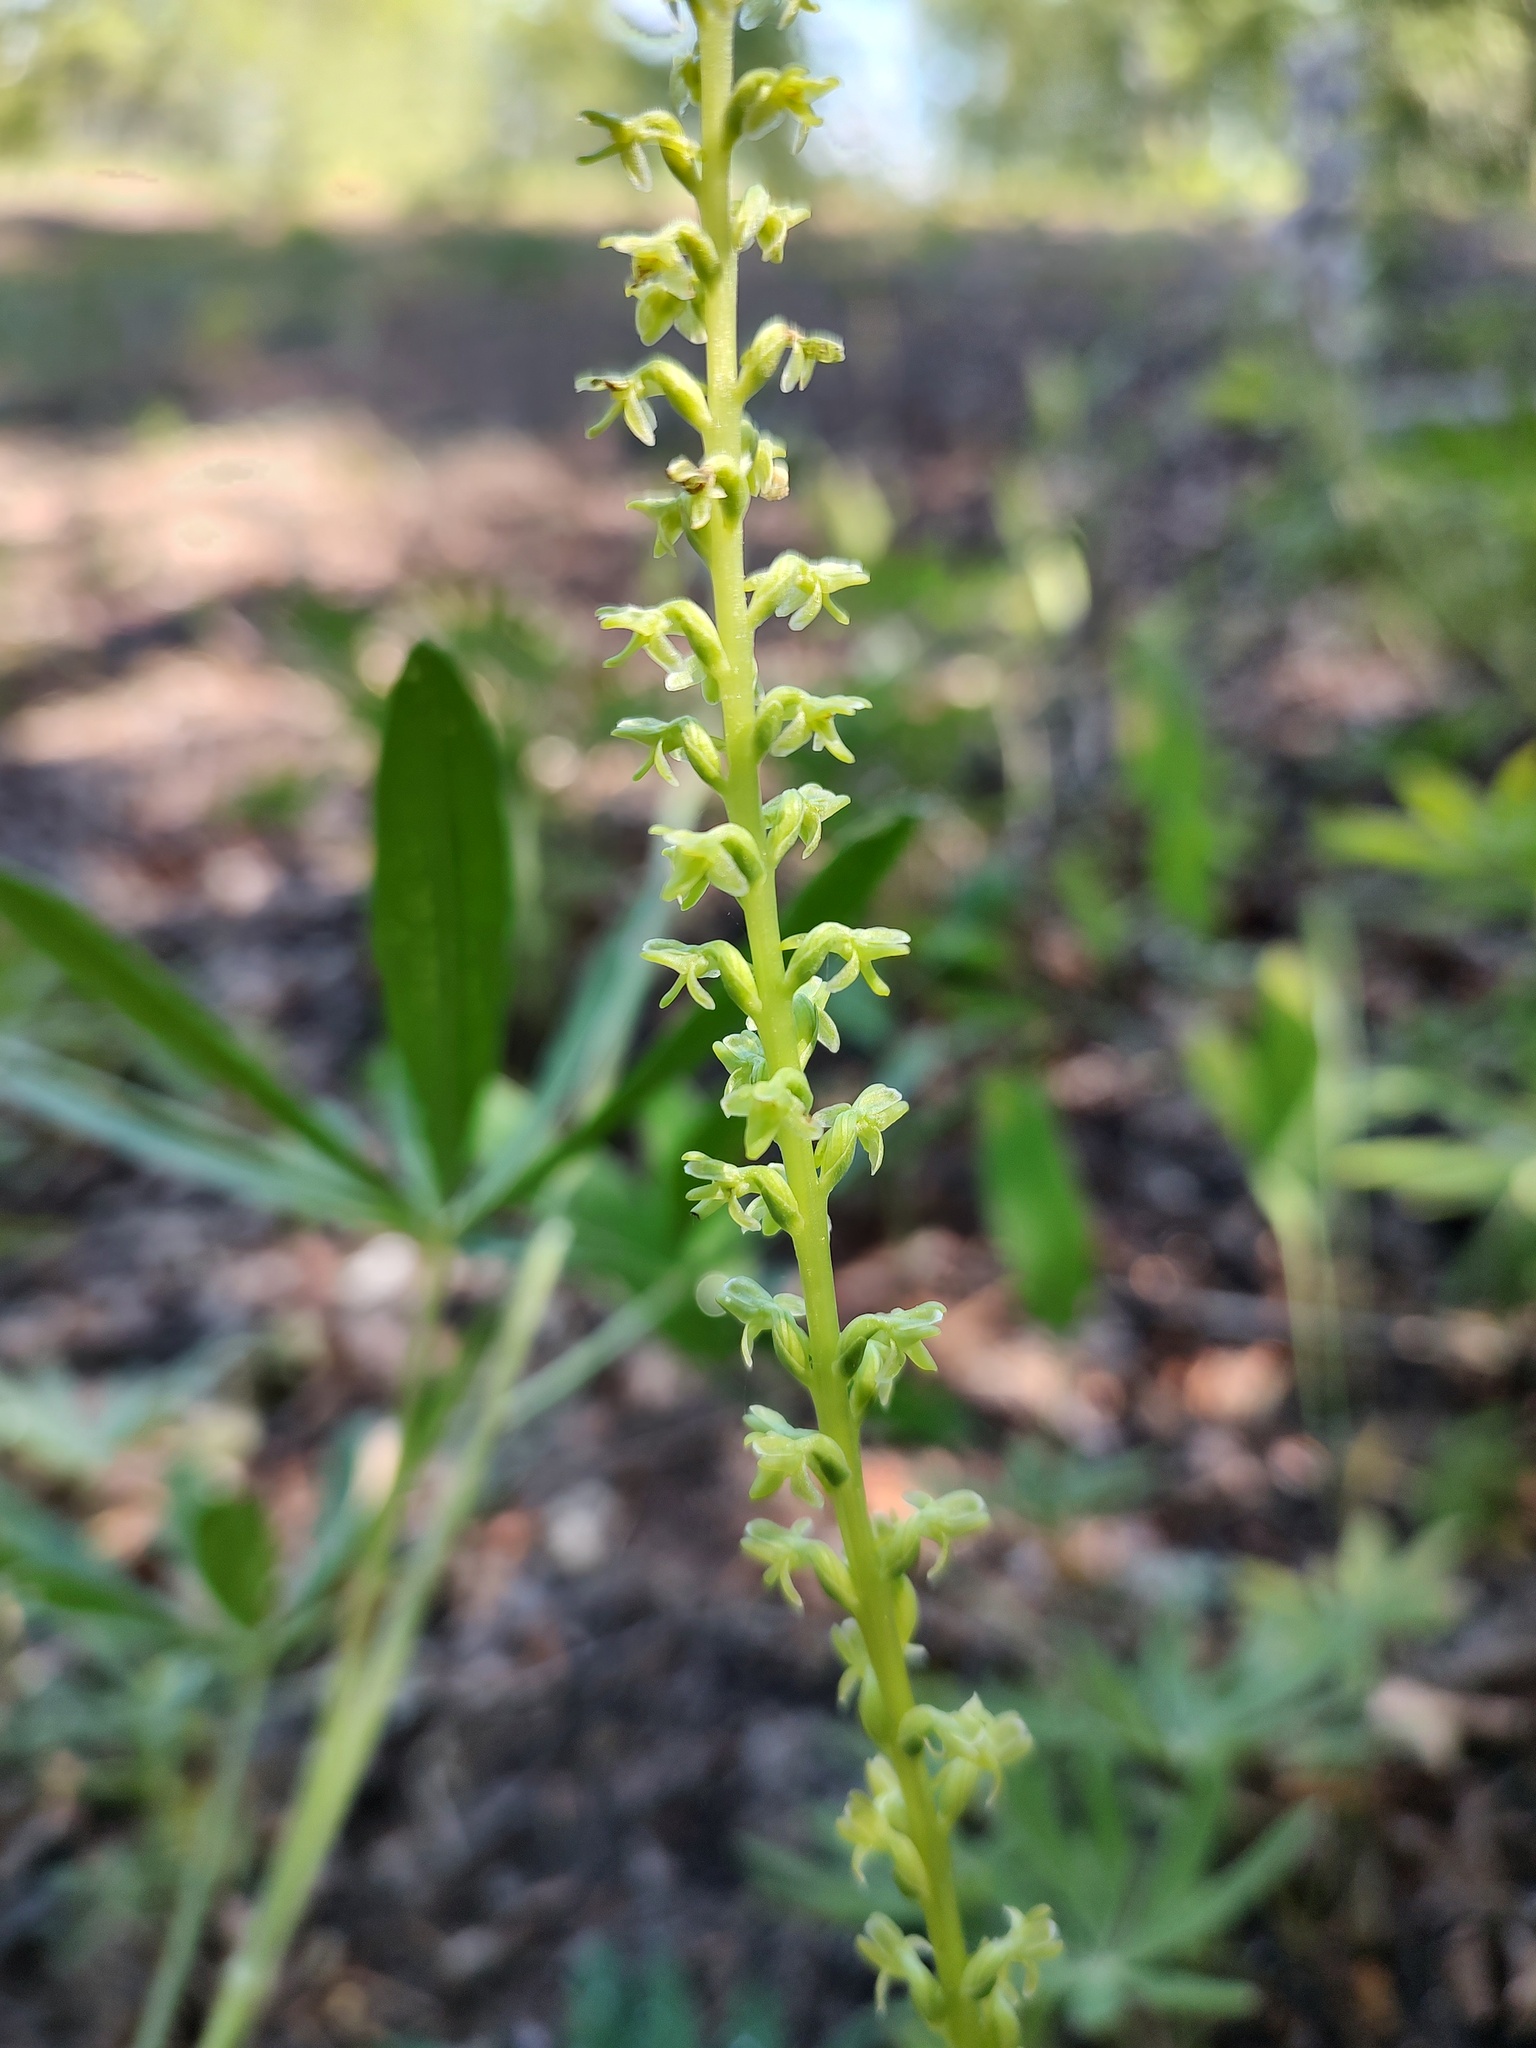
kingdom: Plantae
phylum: Tracheophyta
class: Liliopsida
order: Asparagales
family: Orchidaceae
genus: Platanthera
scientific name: Platanthera unalascensis
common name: Alaska bog orchid
